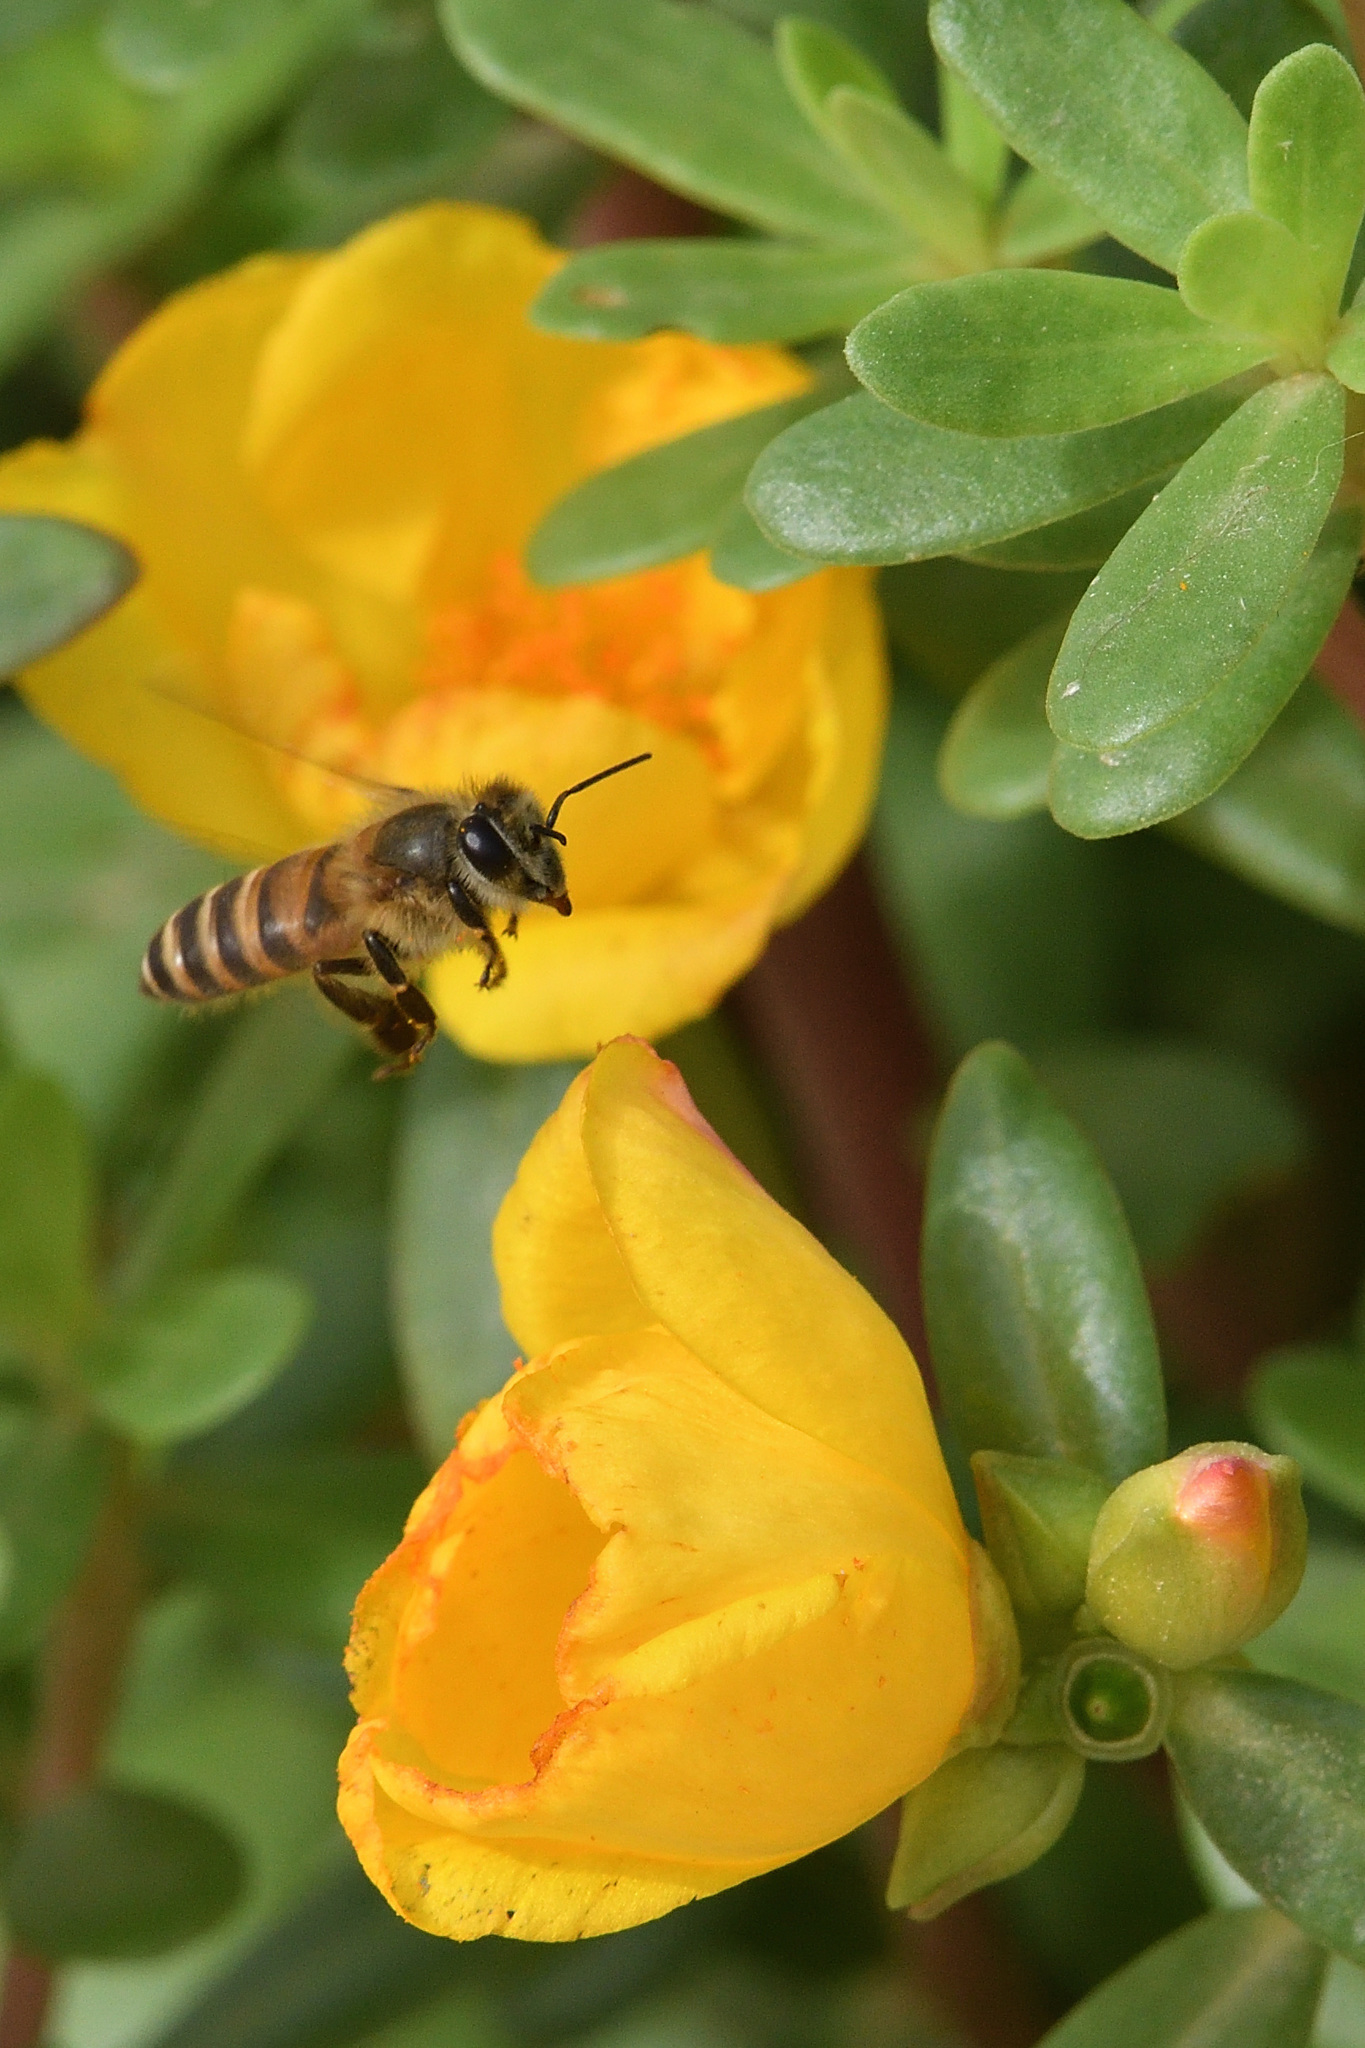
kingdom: Animalia
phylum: Arthropoda
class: Insecta
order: Hymenoptera
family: Apidae
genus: Apis
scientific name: Apis cerana
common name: Honey bee
